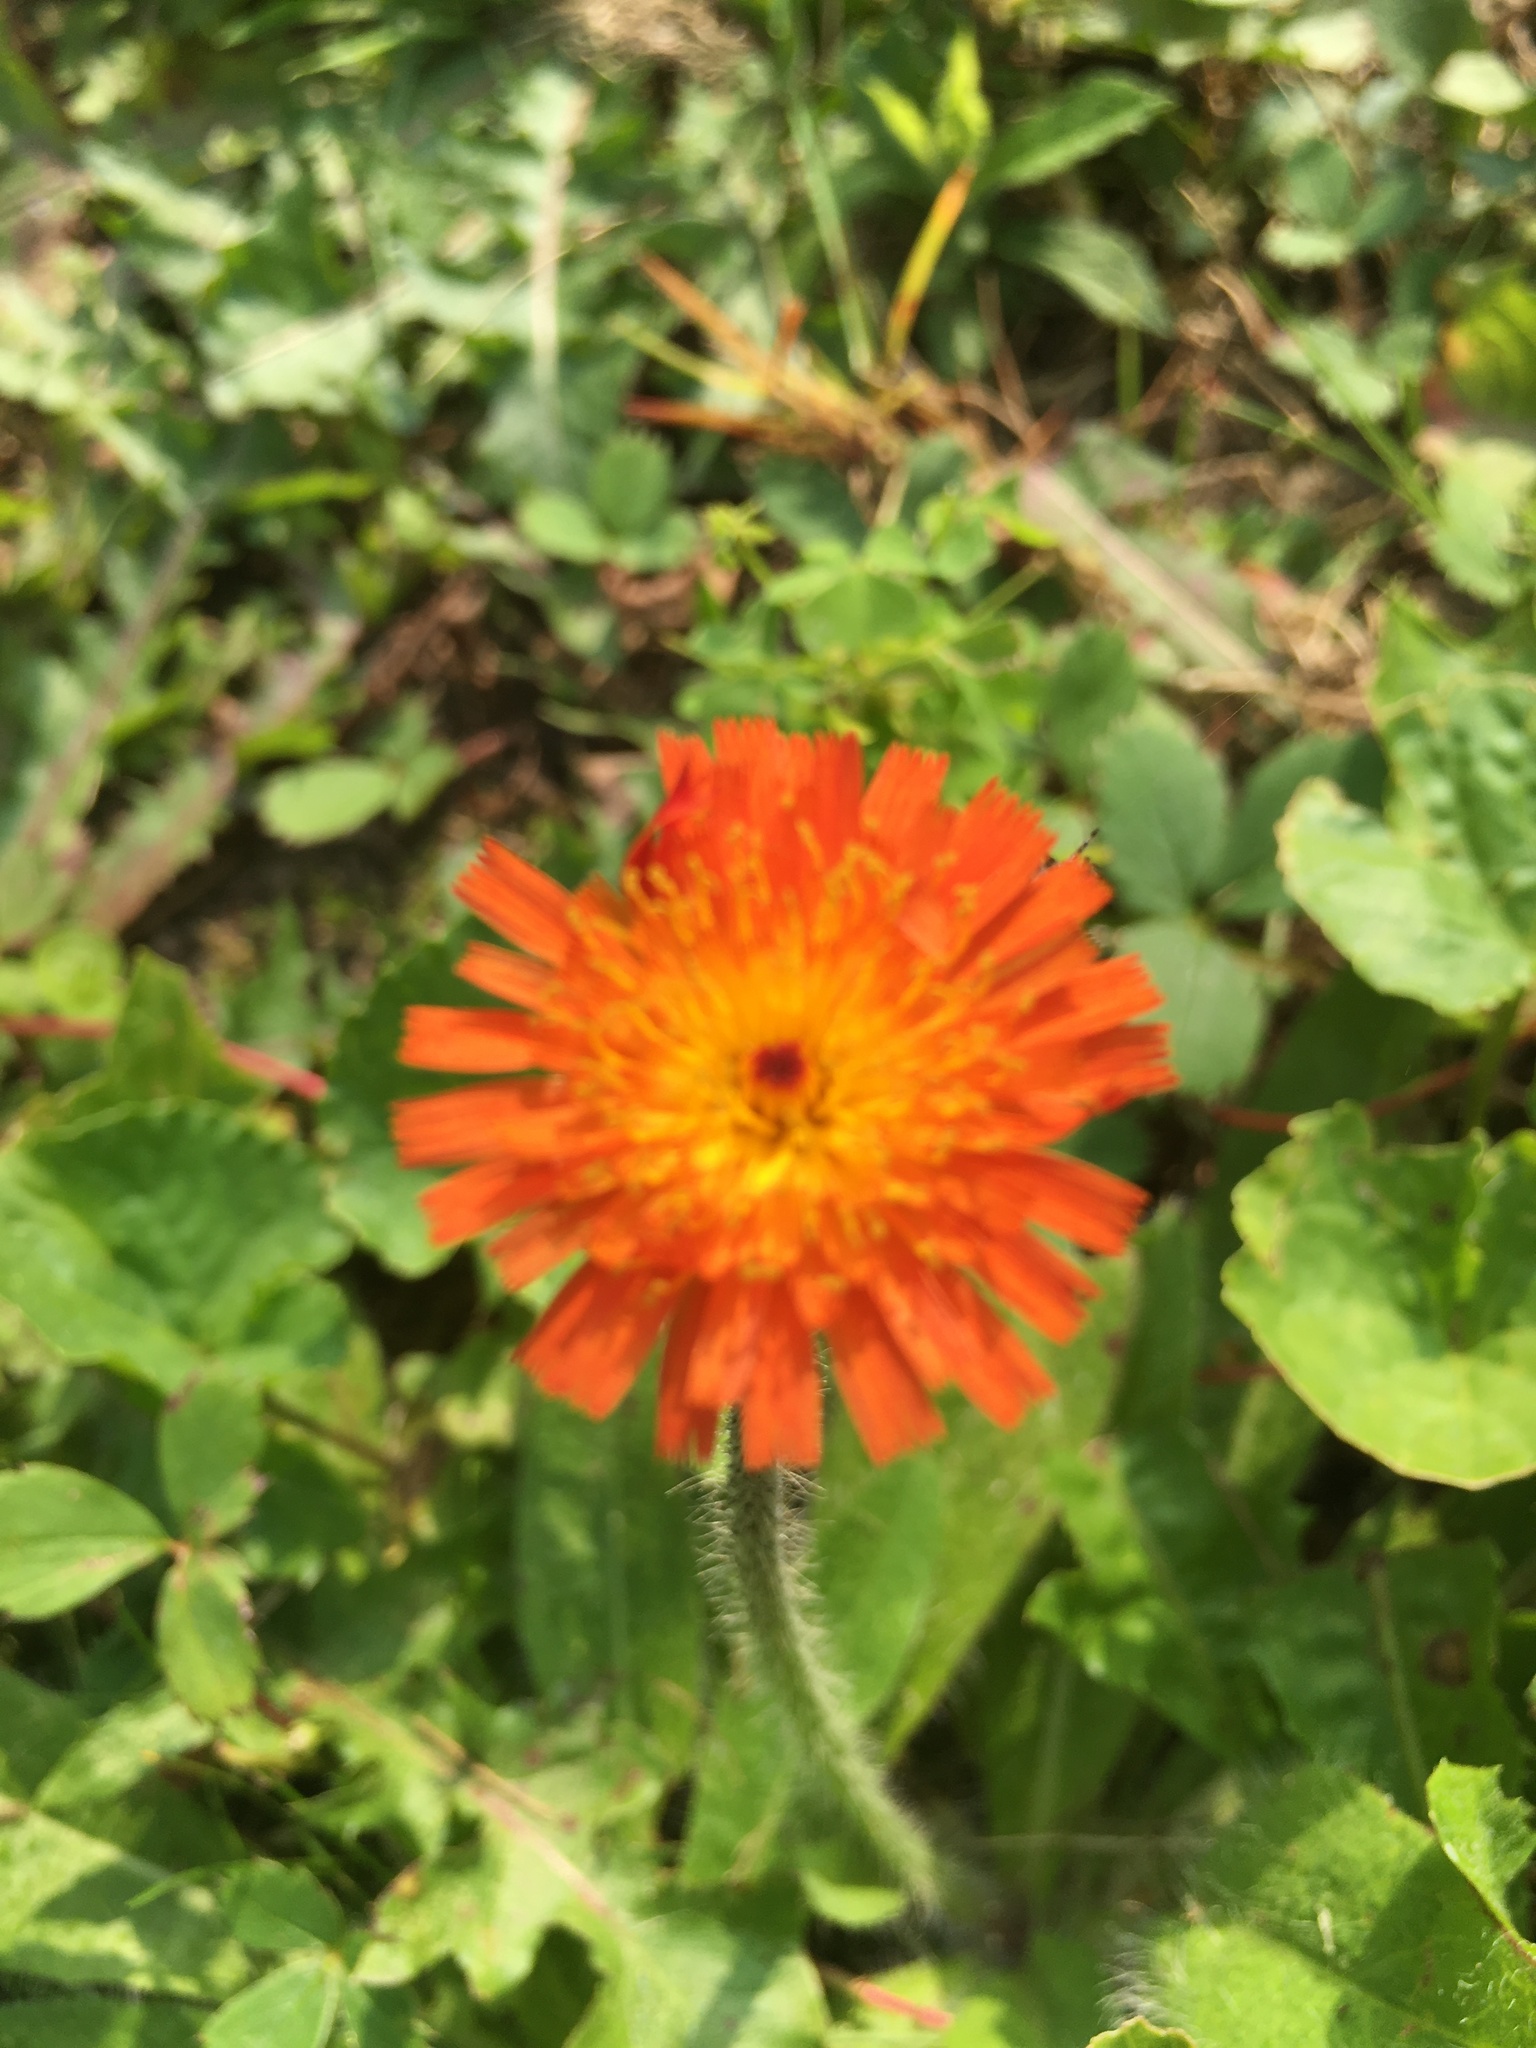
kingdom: Plantae
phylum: Tracheophyta
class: Magnoliopsida
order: Asterales
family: Asteraceae
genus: Pilosella
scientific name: Pilosella aurantiaca
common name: Fox-and-cubs
